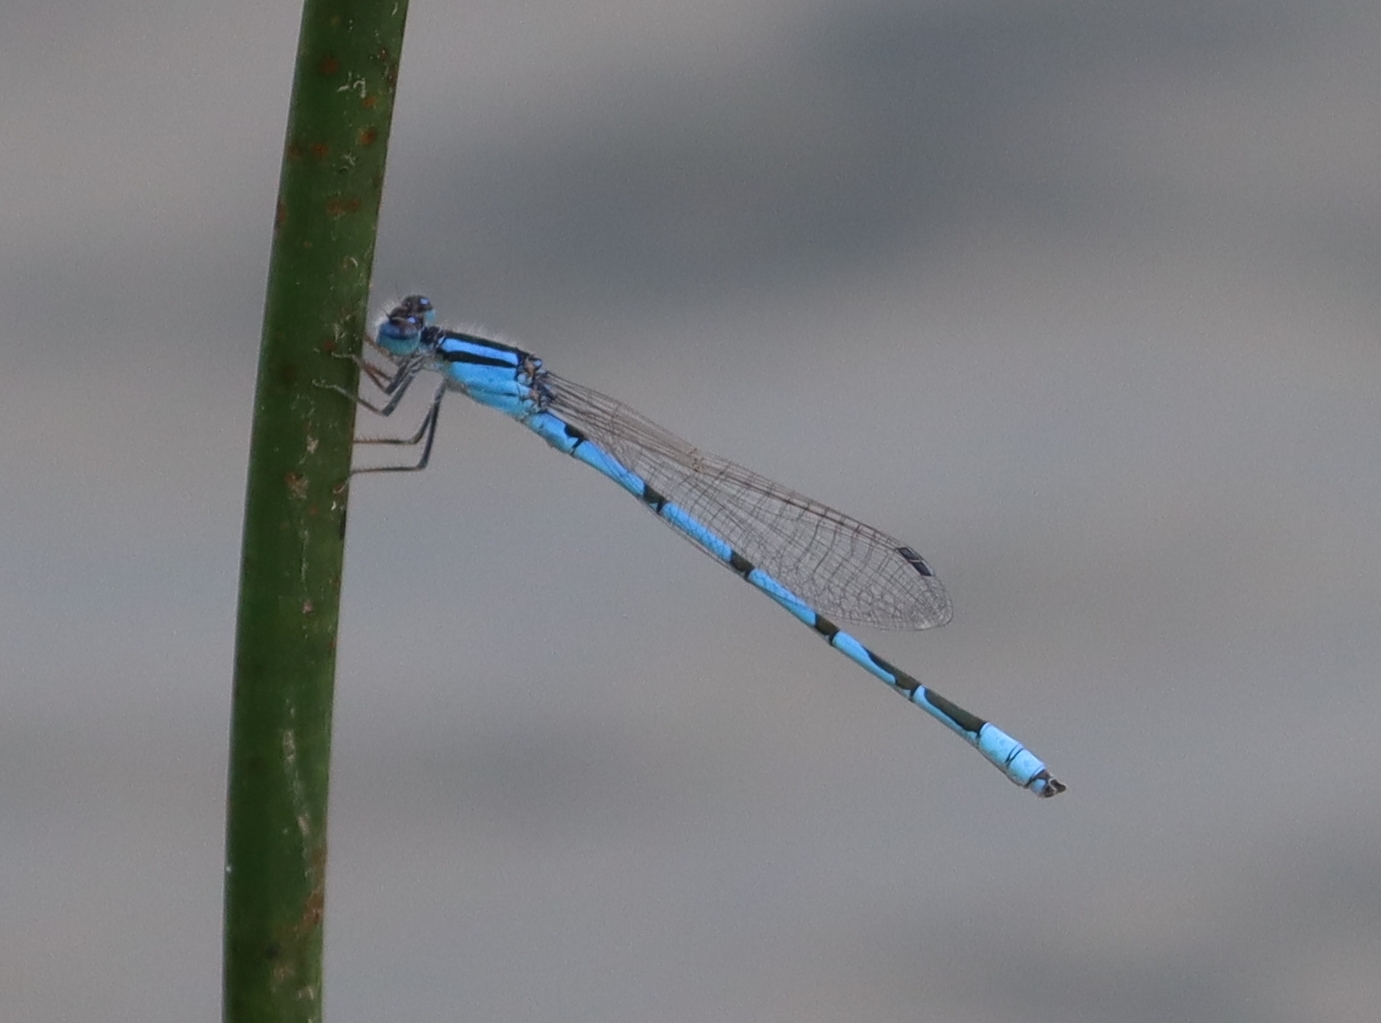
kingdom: Animalia
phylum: Arthropoda
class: Insecta
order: Odonata
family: Coenagrionidae
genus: Enallagma
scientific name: Enallagma civile
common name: Damselfly
